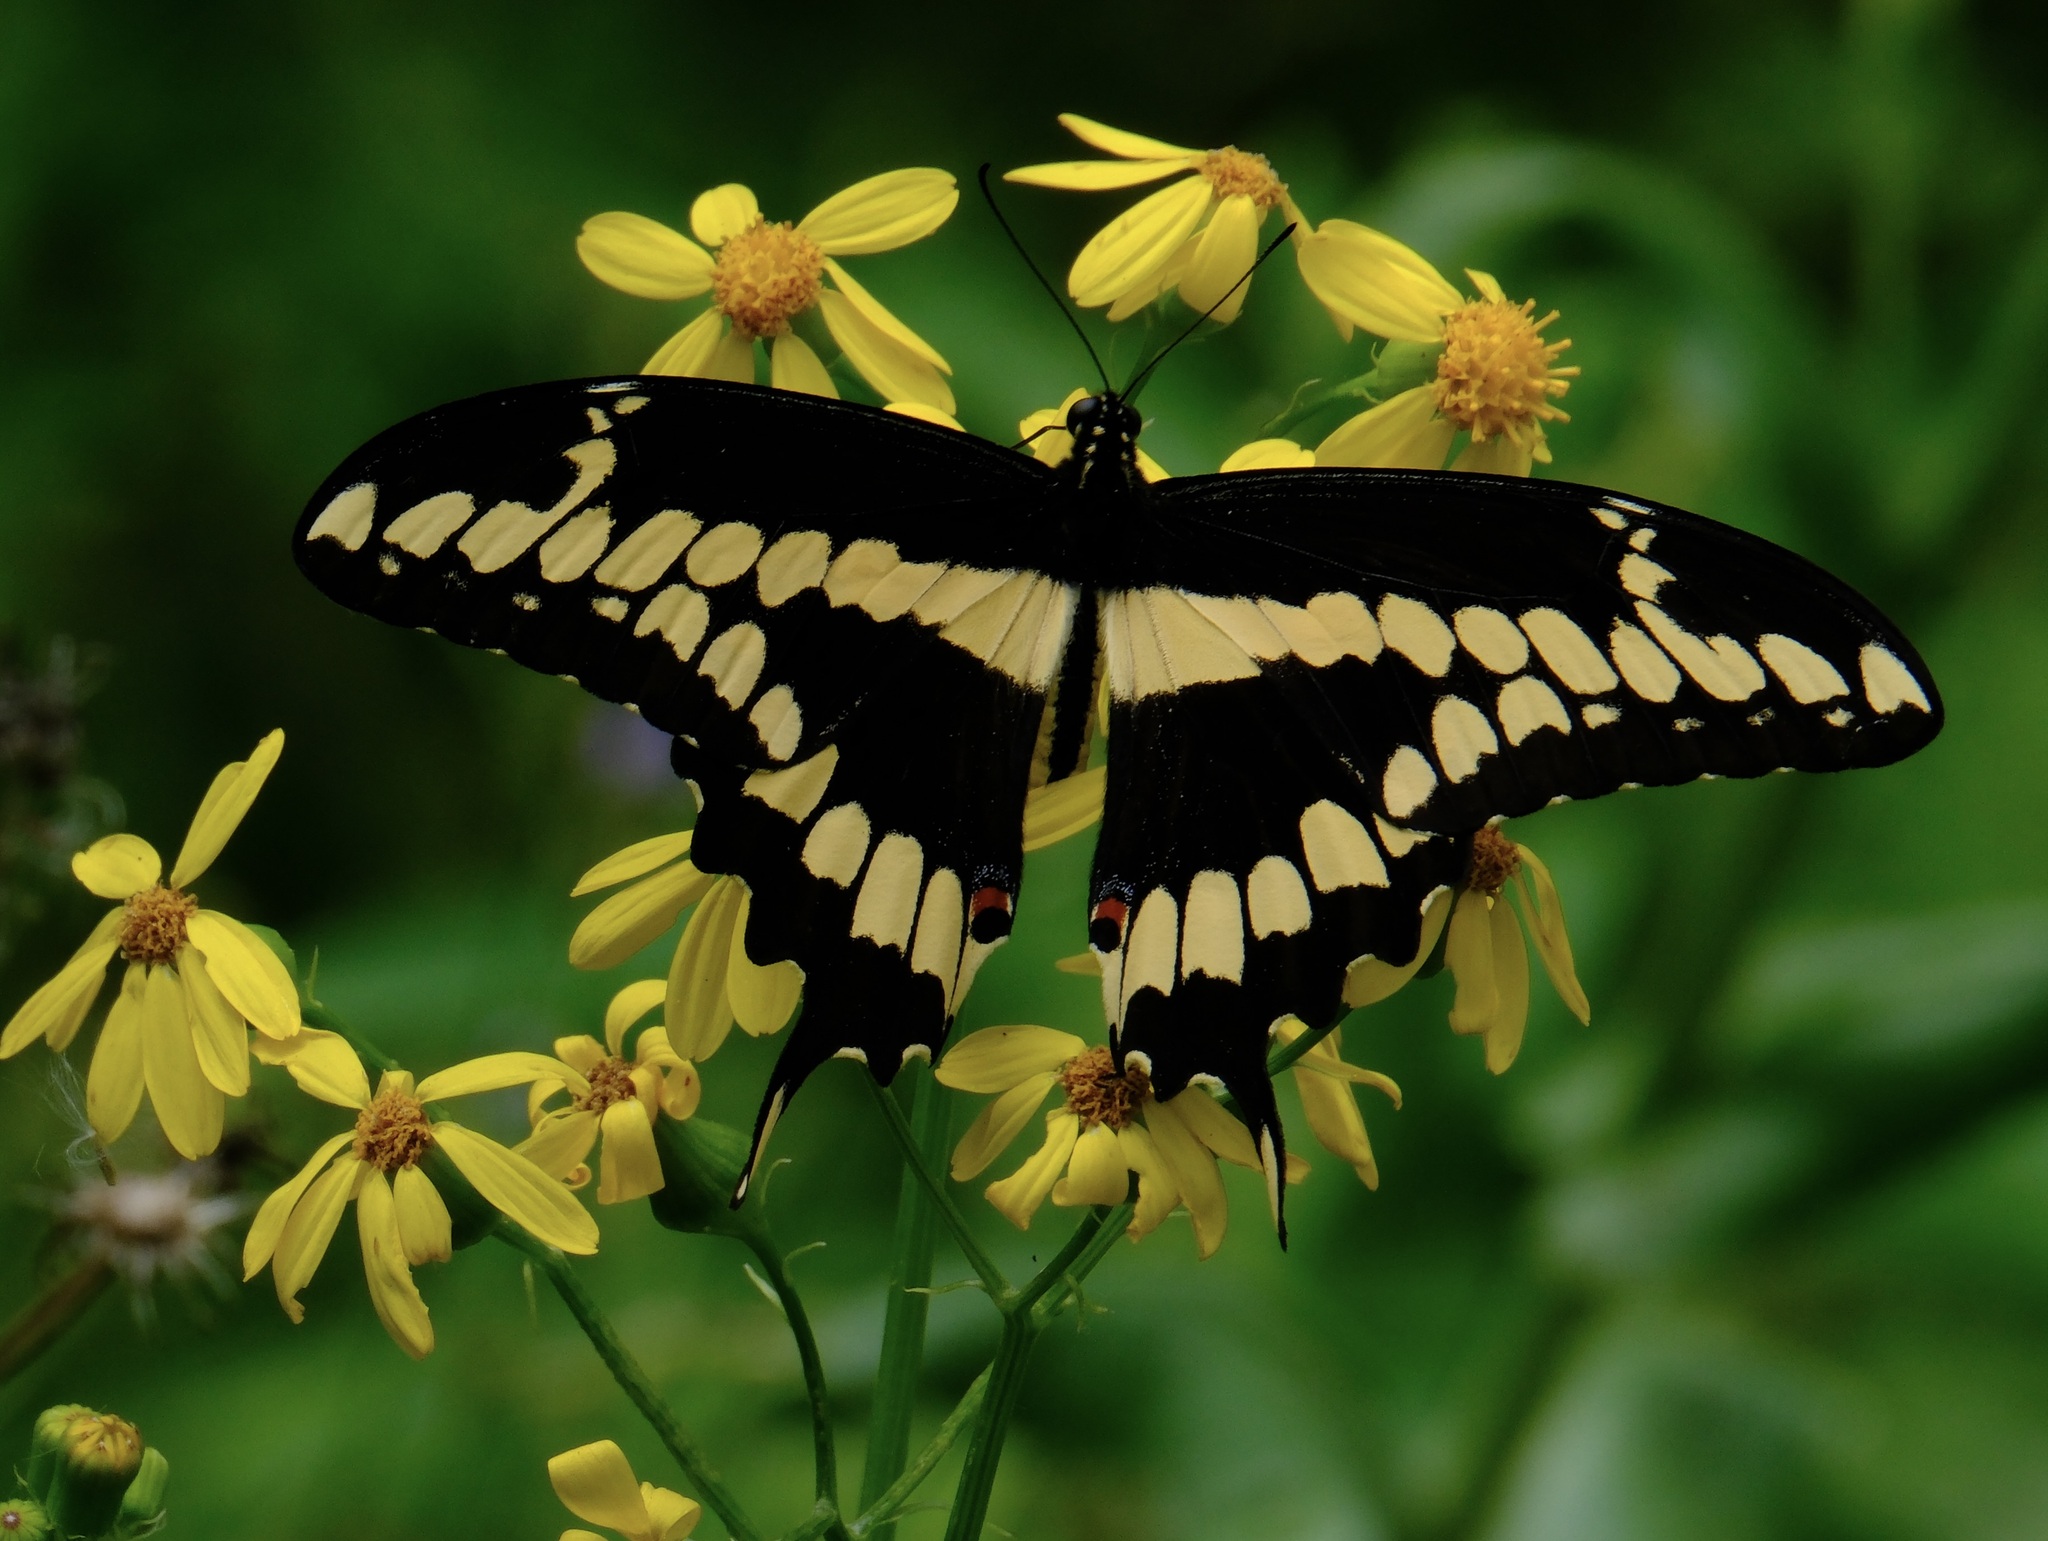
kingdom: Animalia
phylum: Arthropoda
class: Insecta
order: Lepidoptera
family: Papilionidae
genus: Papilio
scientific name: Papilio cresphontes
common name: Giant swallowtail
